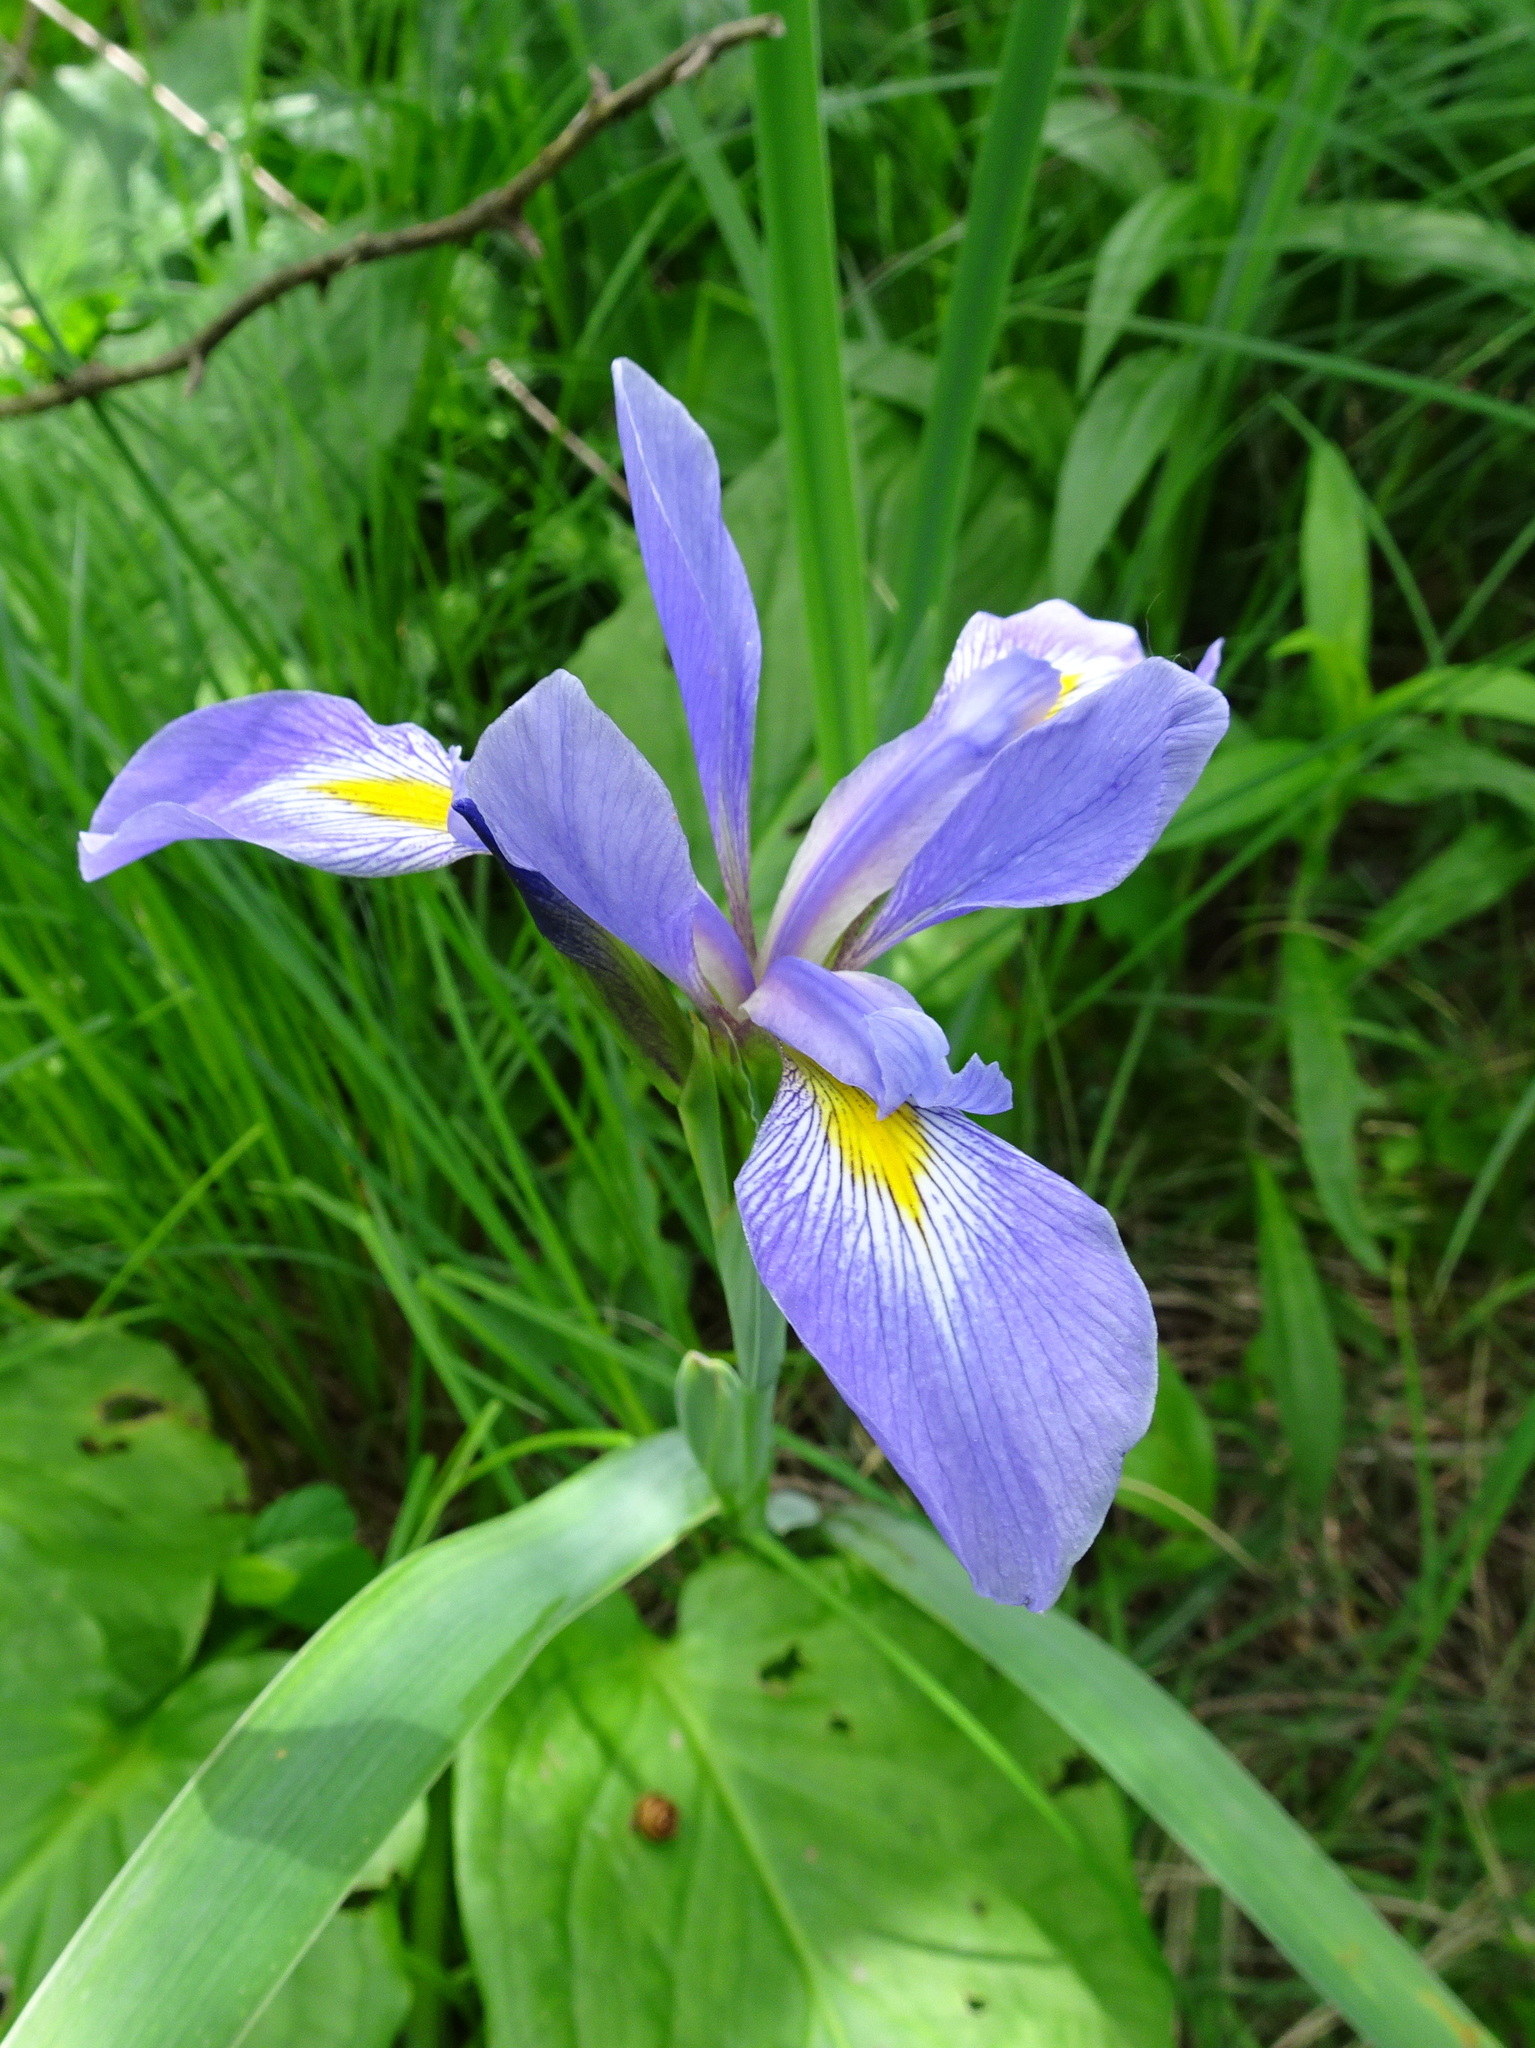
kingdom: Plantae
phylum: Tracheophyta
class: Liliopsida
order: Asparagales
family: Iridaceae
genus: Iris
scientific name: Iris virginica
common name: Southern blue flag
